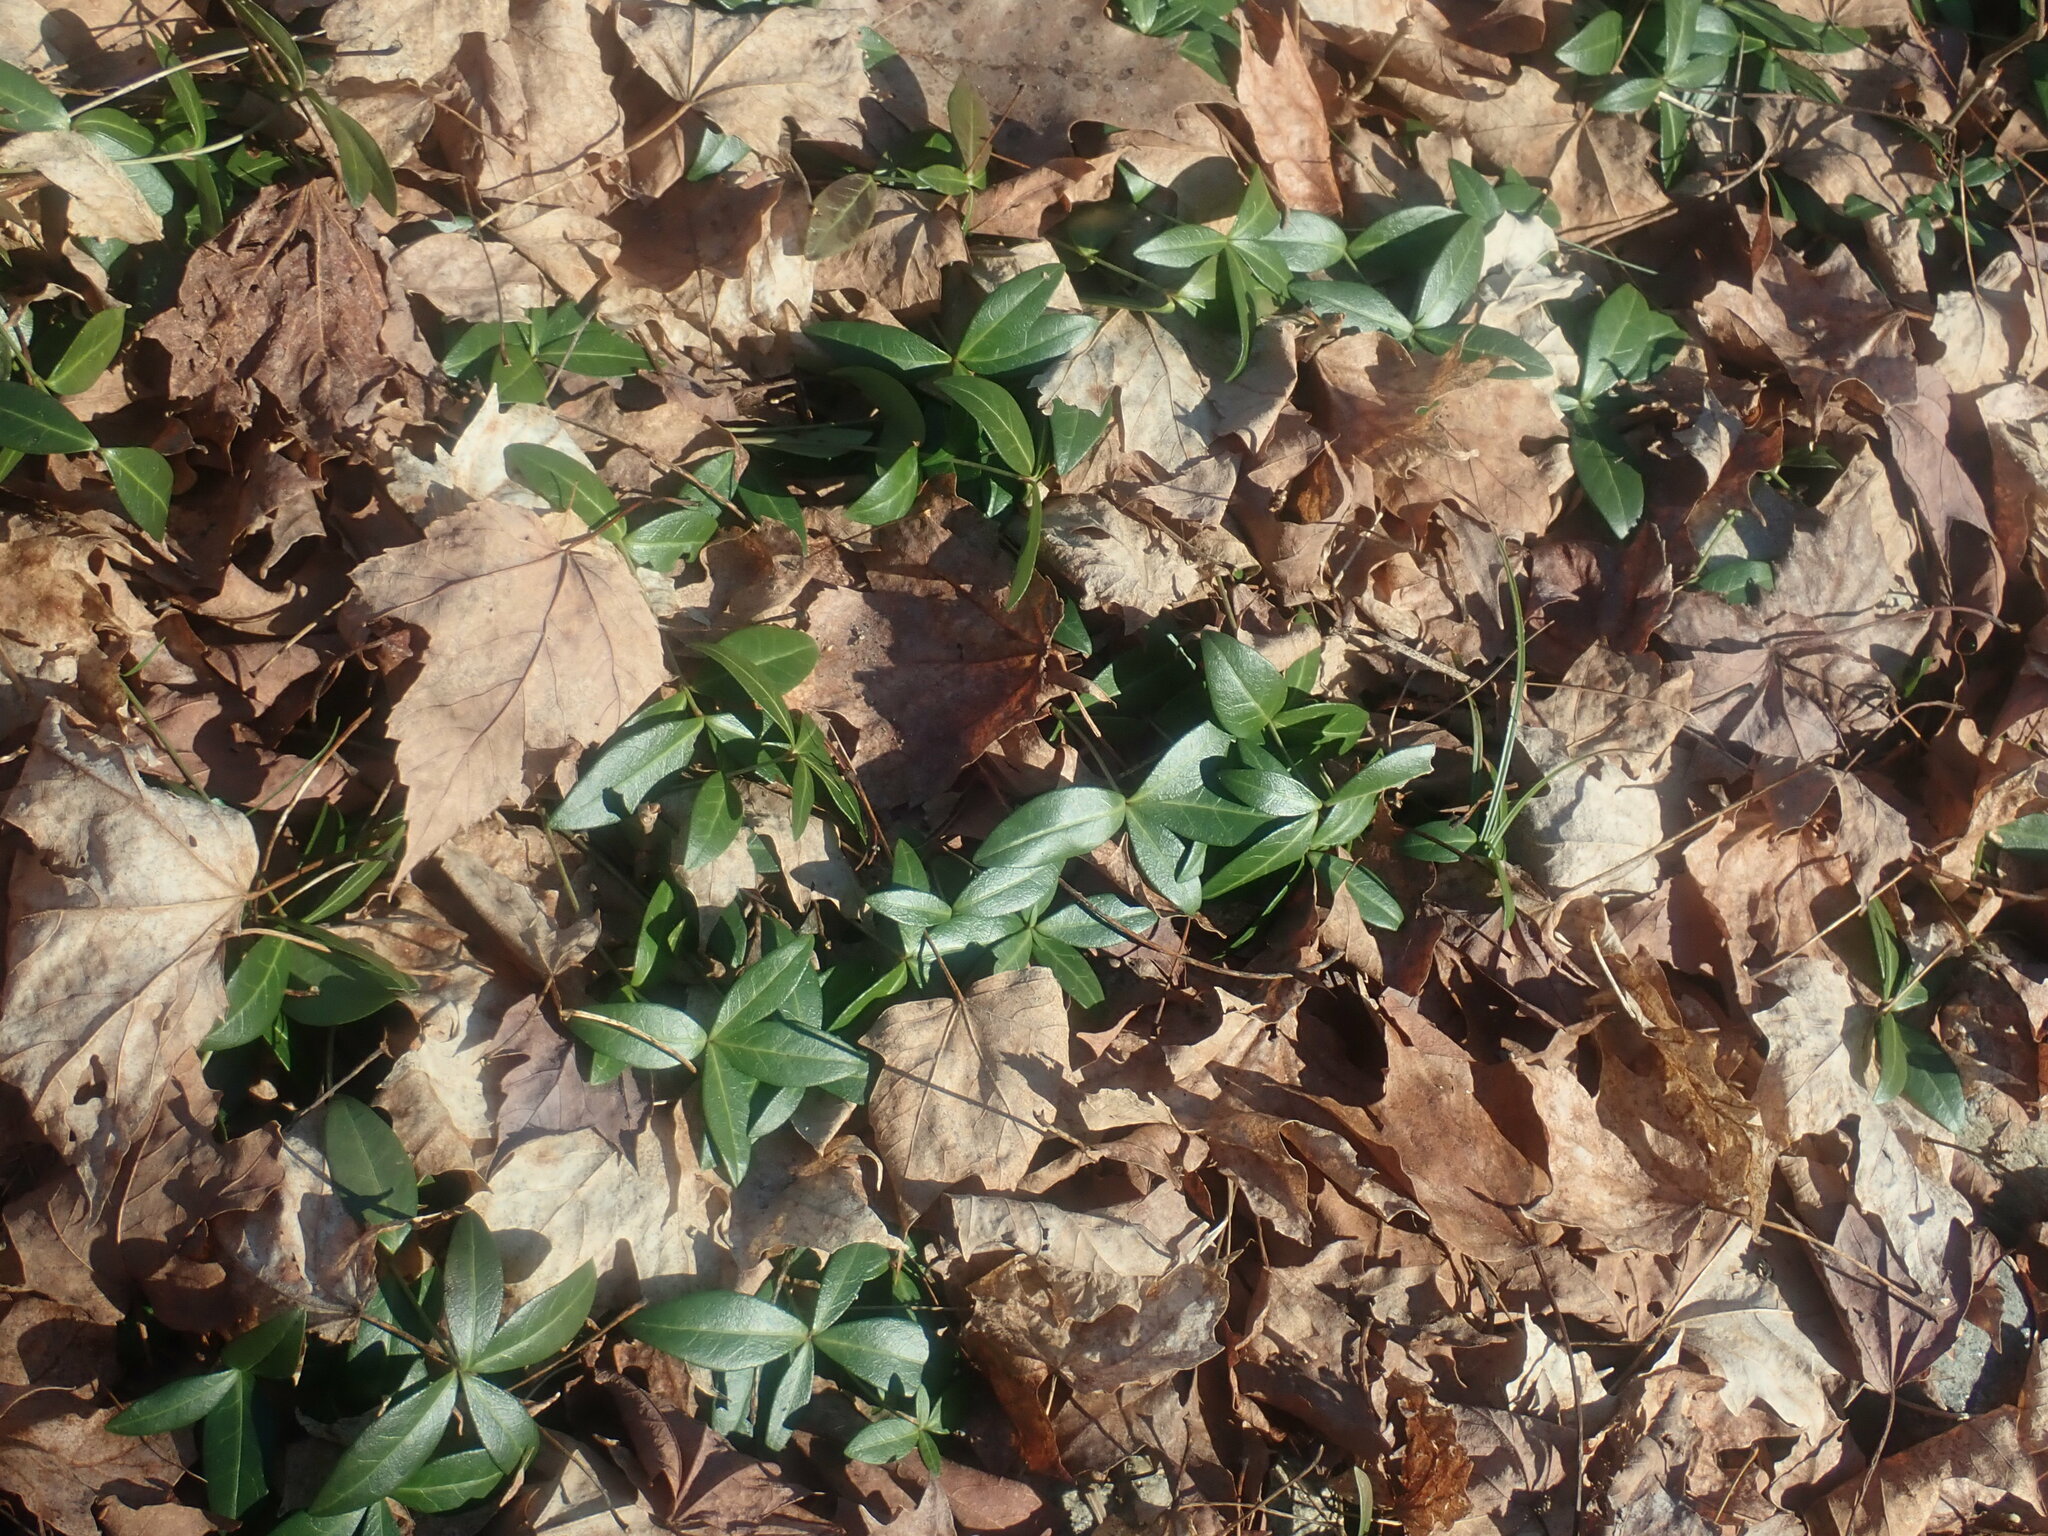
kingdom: Plantae
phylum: Tracheophyta
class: Magnoliopsida
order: Gentianales
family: Apocynaceae
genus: Vinca
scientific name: Vinca minor
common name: Lesser periwinkle
